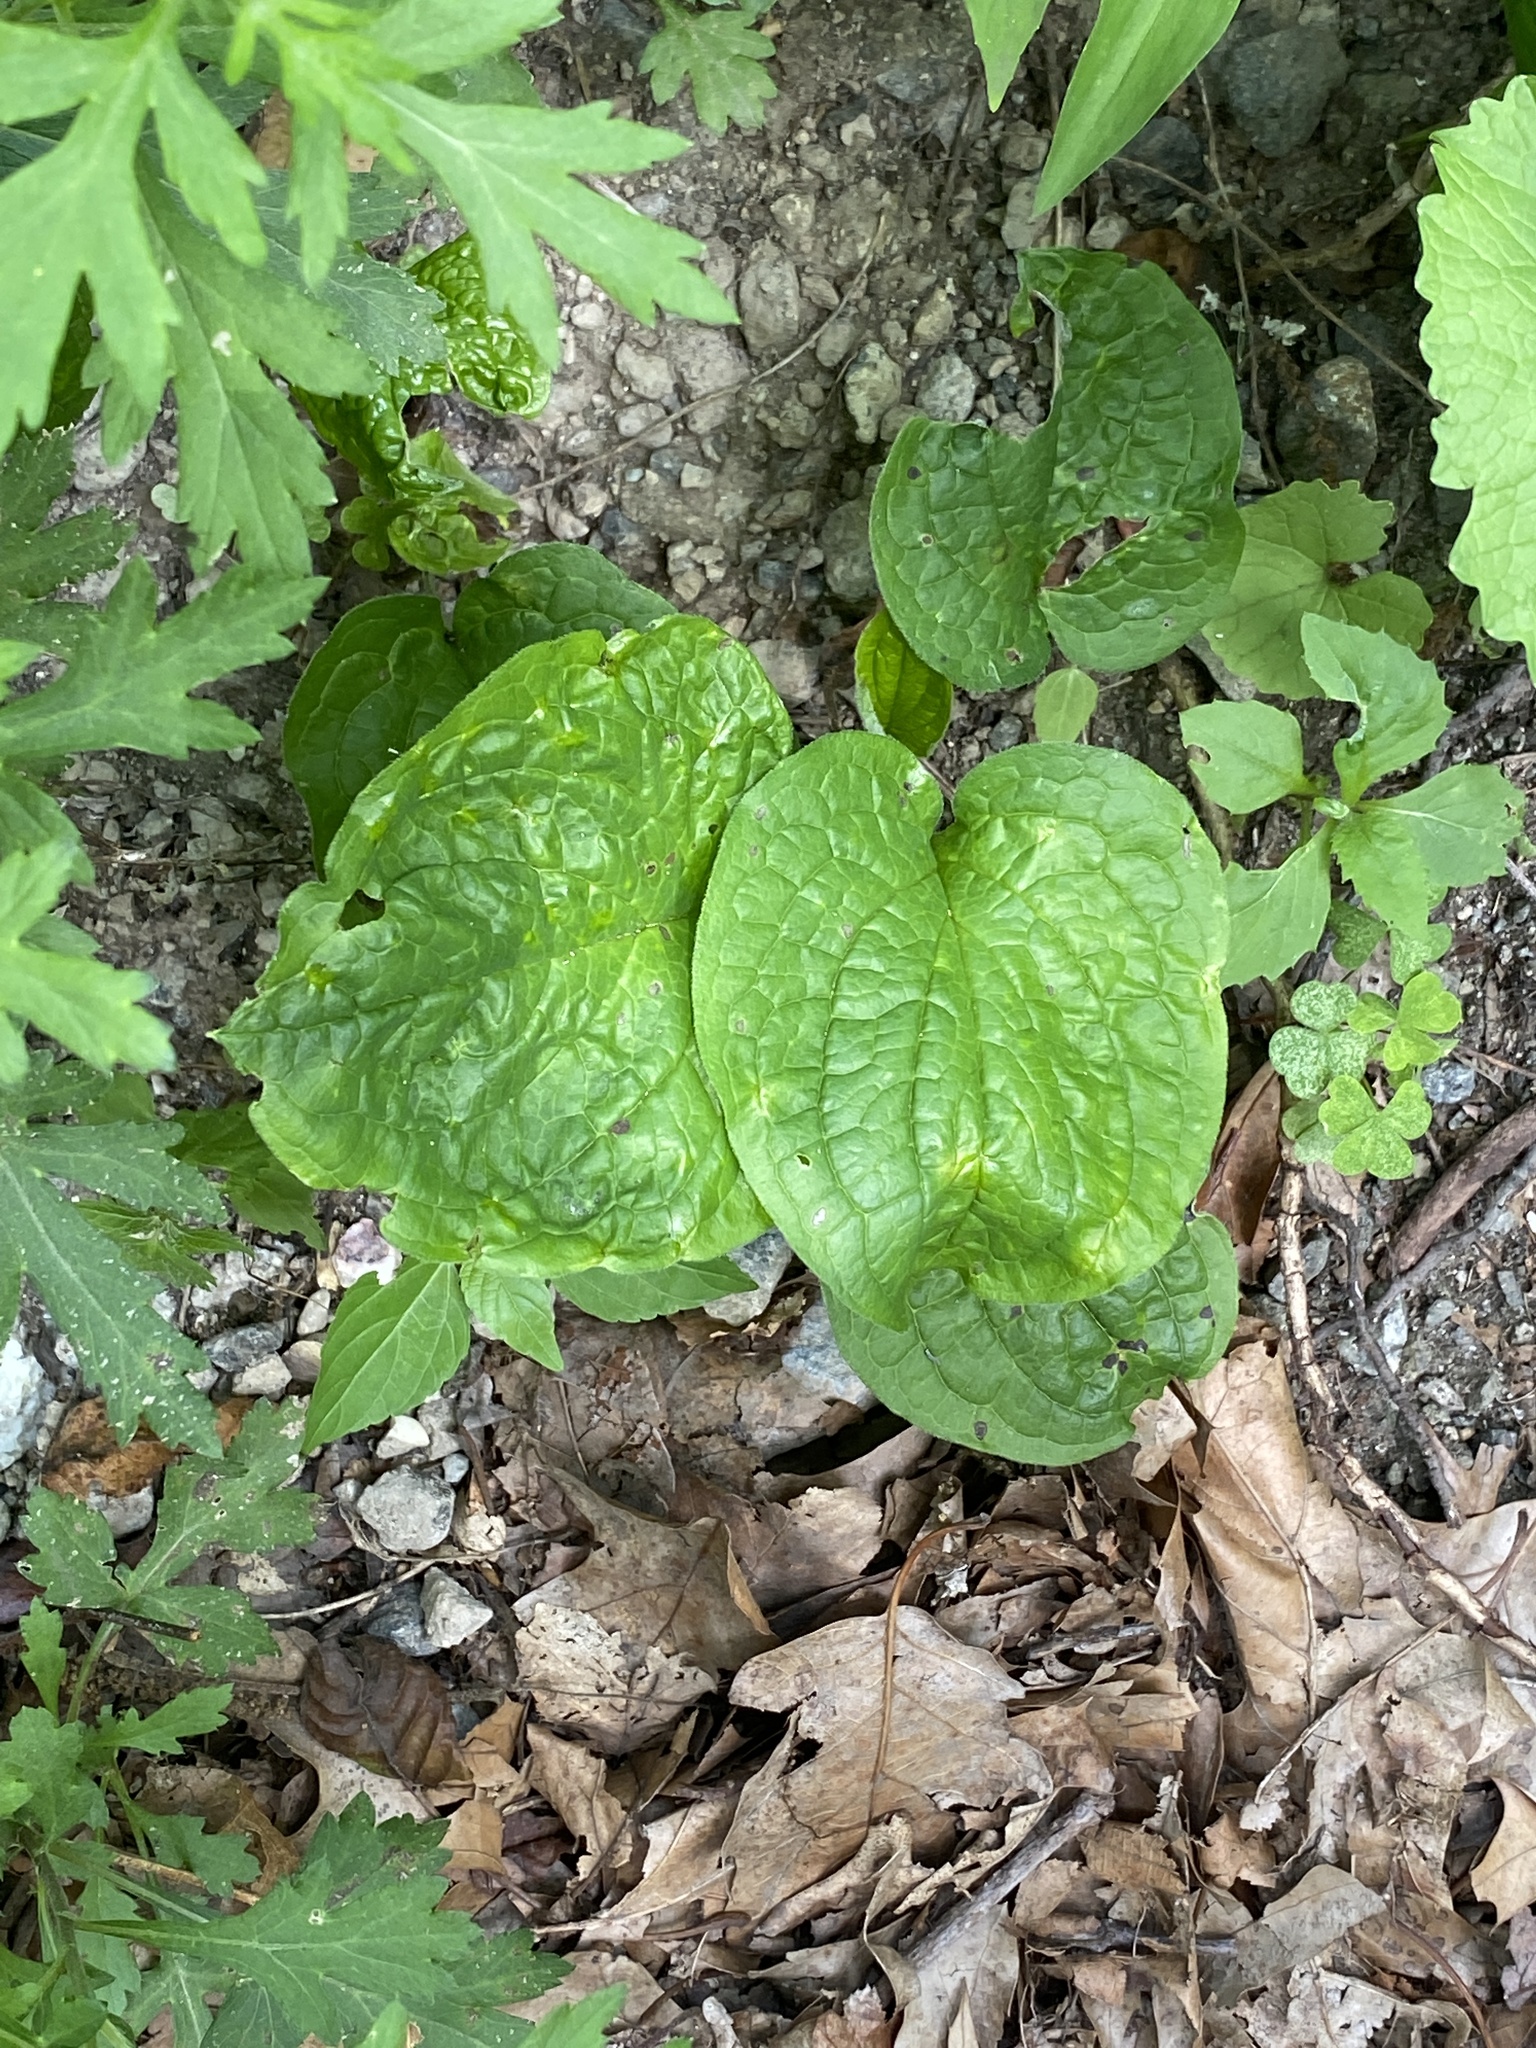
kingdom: Plantae
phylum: Tracheophyta
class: Magnoliopsida
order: Boraginales
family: Boraginaceae
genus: Hackelia
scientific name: Hackelia virginiana
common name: Beggar's-lice
